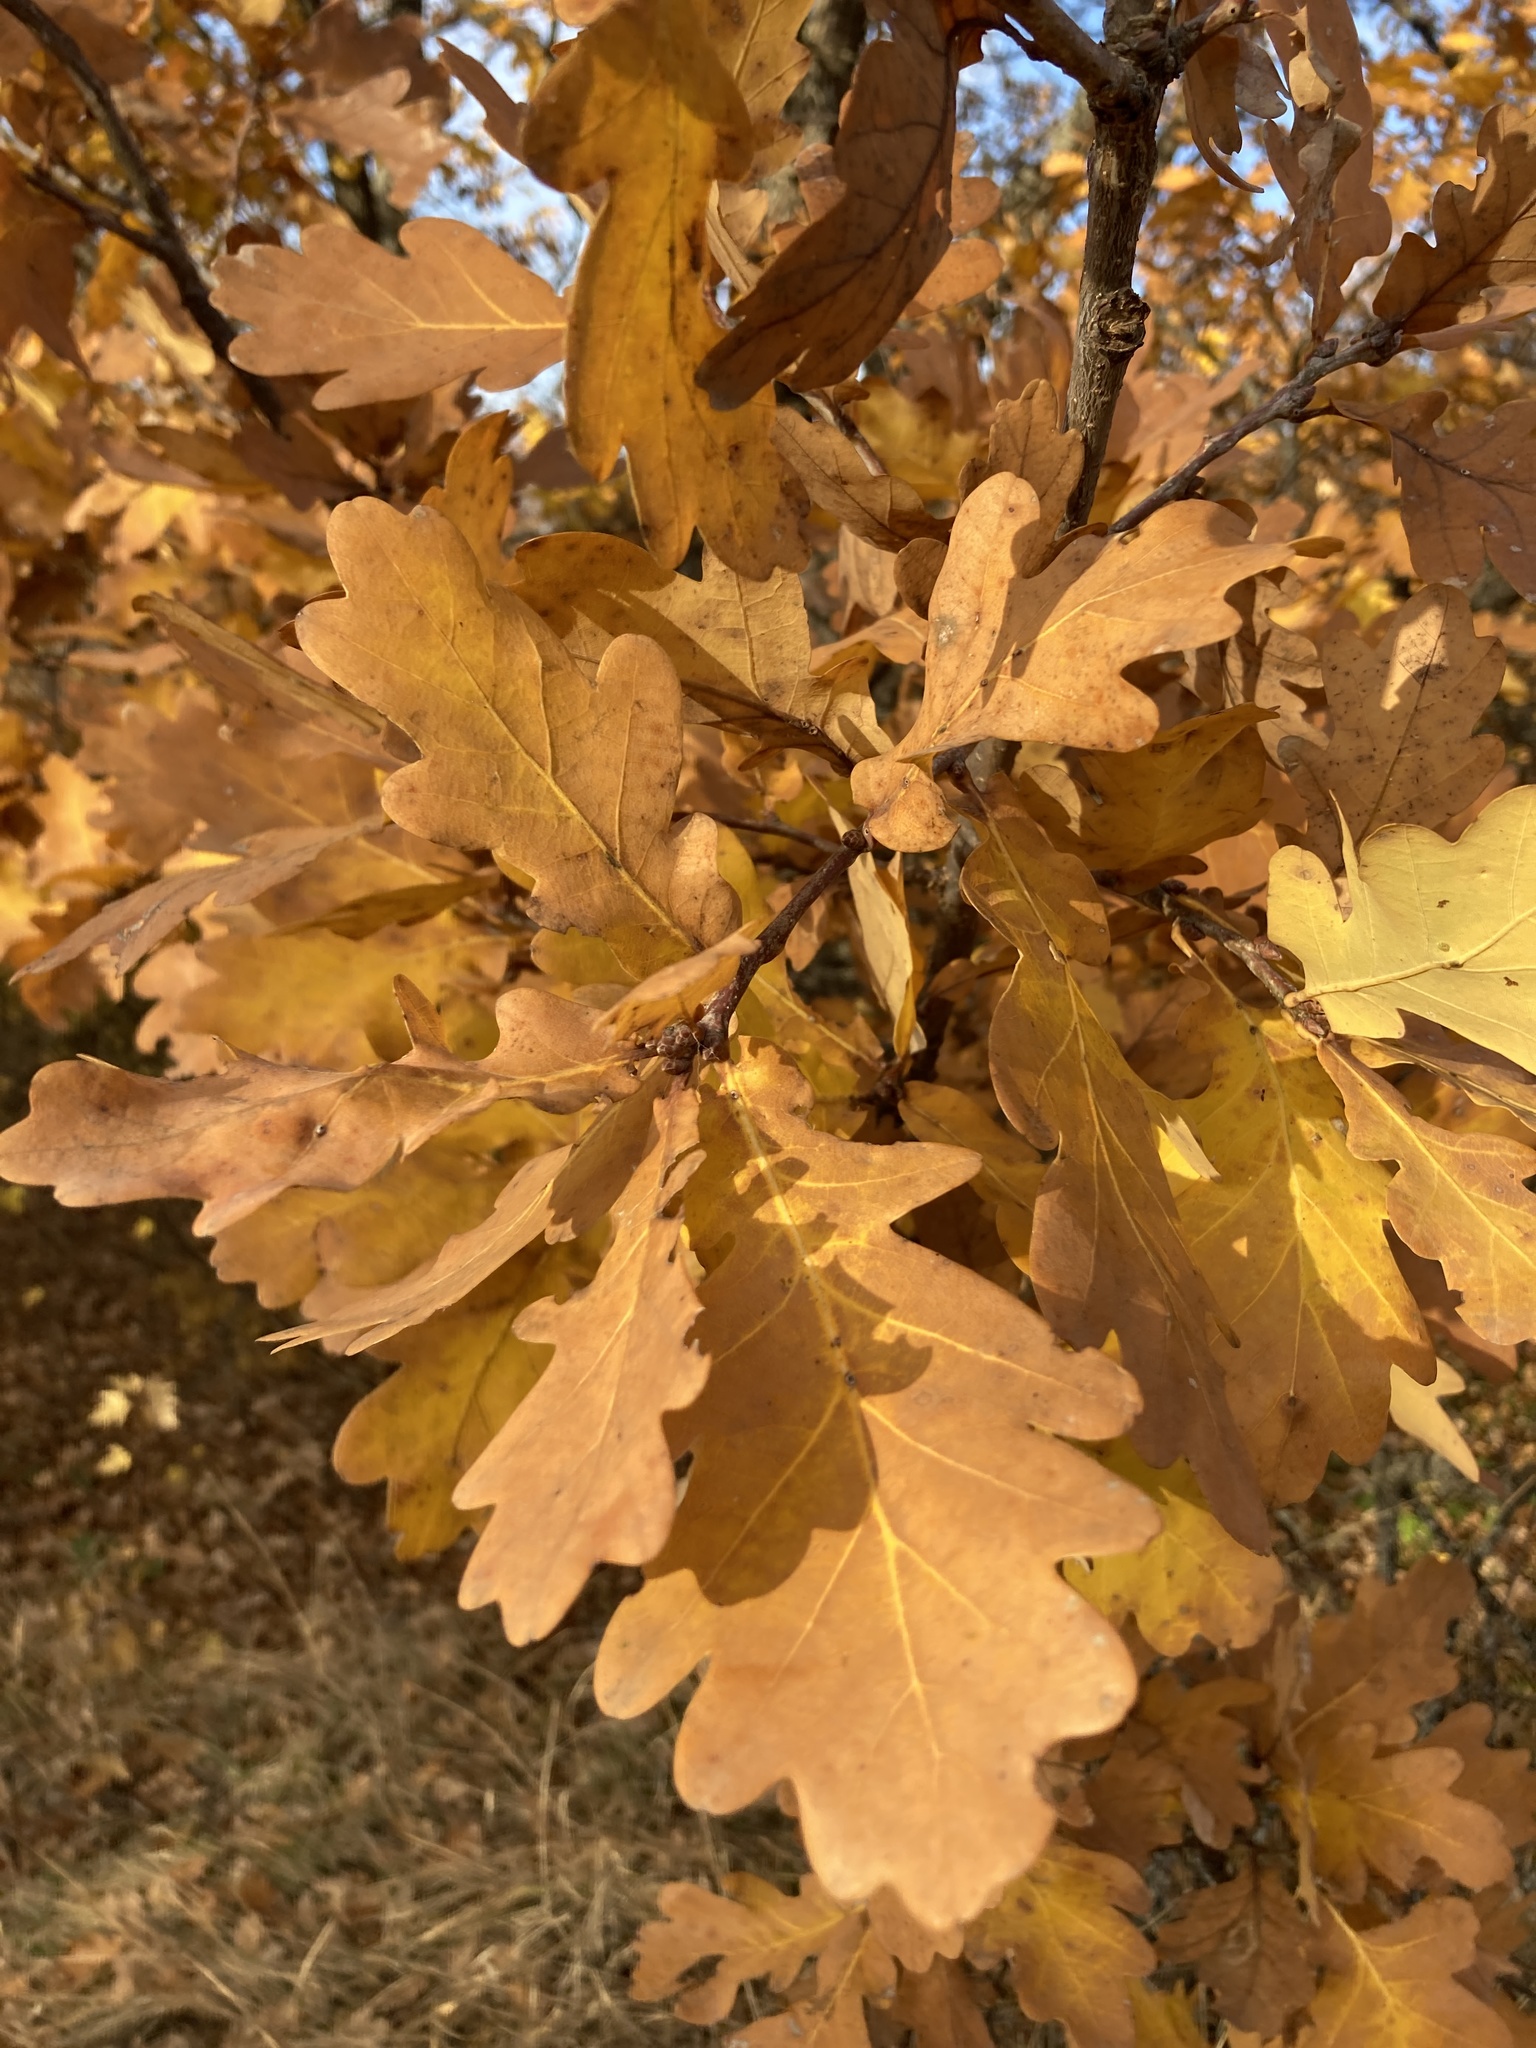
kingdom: Plantae
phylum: Tracheophyta
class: Magnoliopsida
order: Fagales
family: Fagaceae
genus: Quercus
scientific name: Quercus robur
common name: Pedunculate oak
